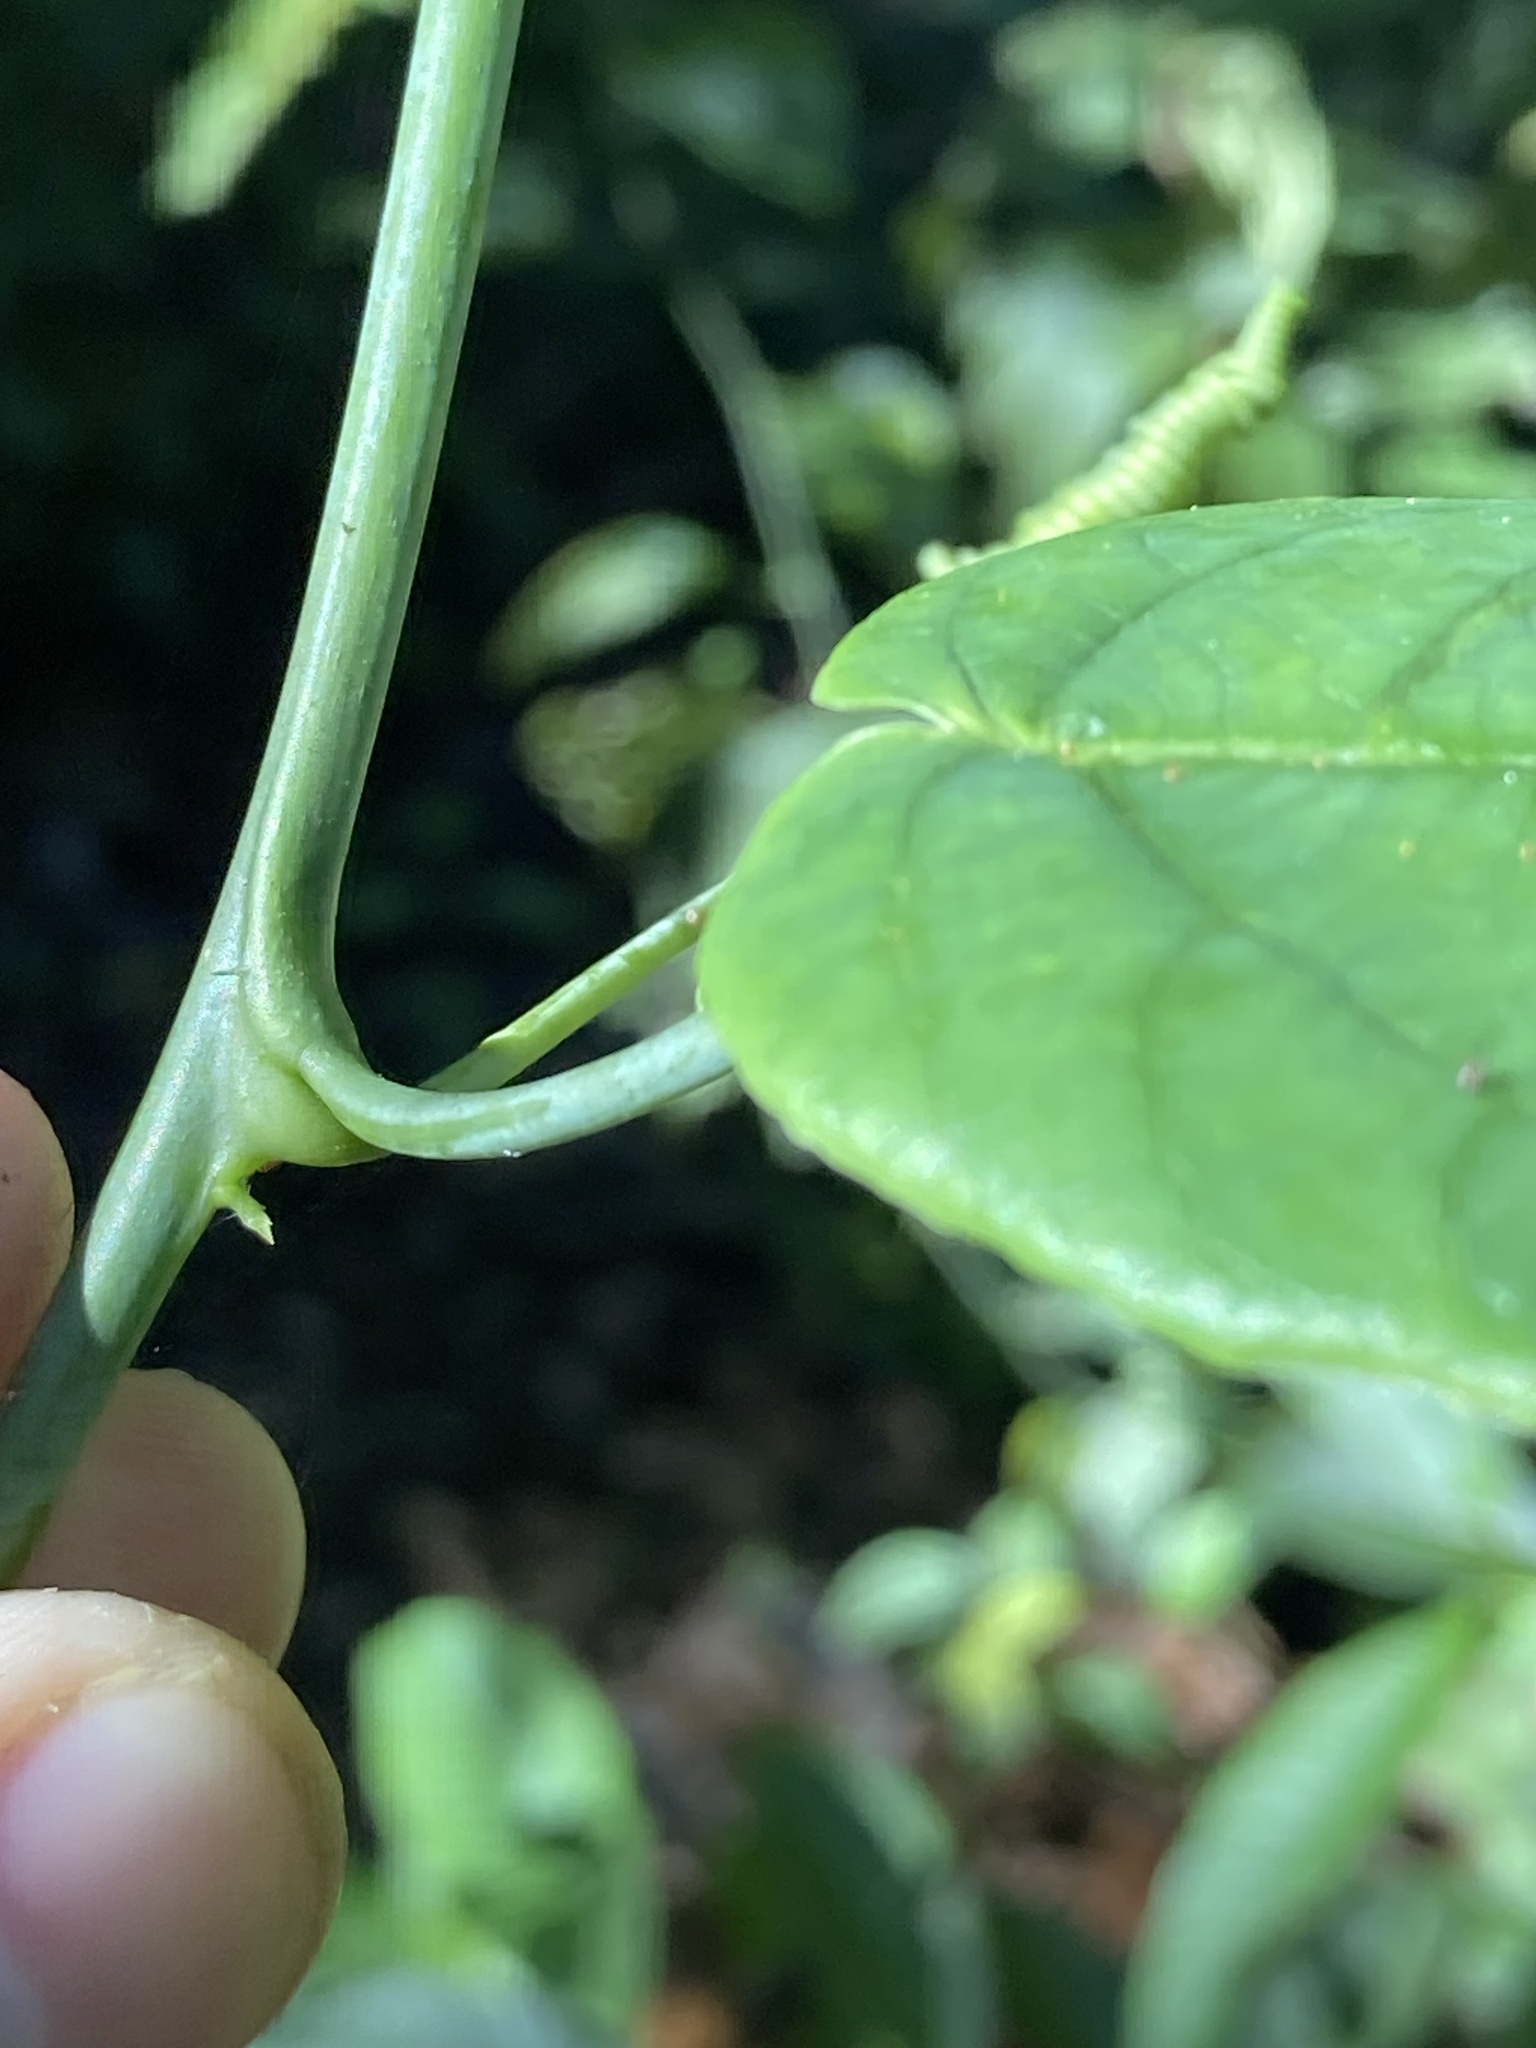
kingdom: Plantae
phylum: Tracheophyta
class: Magnoliopsida
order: Malpighiales
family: Passifloraceae
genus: Passiflora
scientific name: Passiflora pedicellaris
